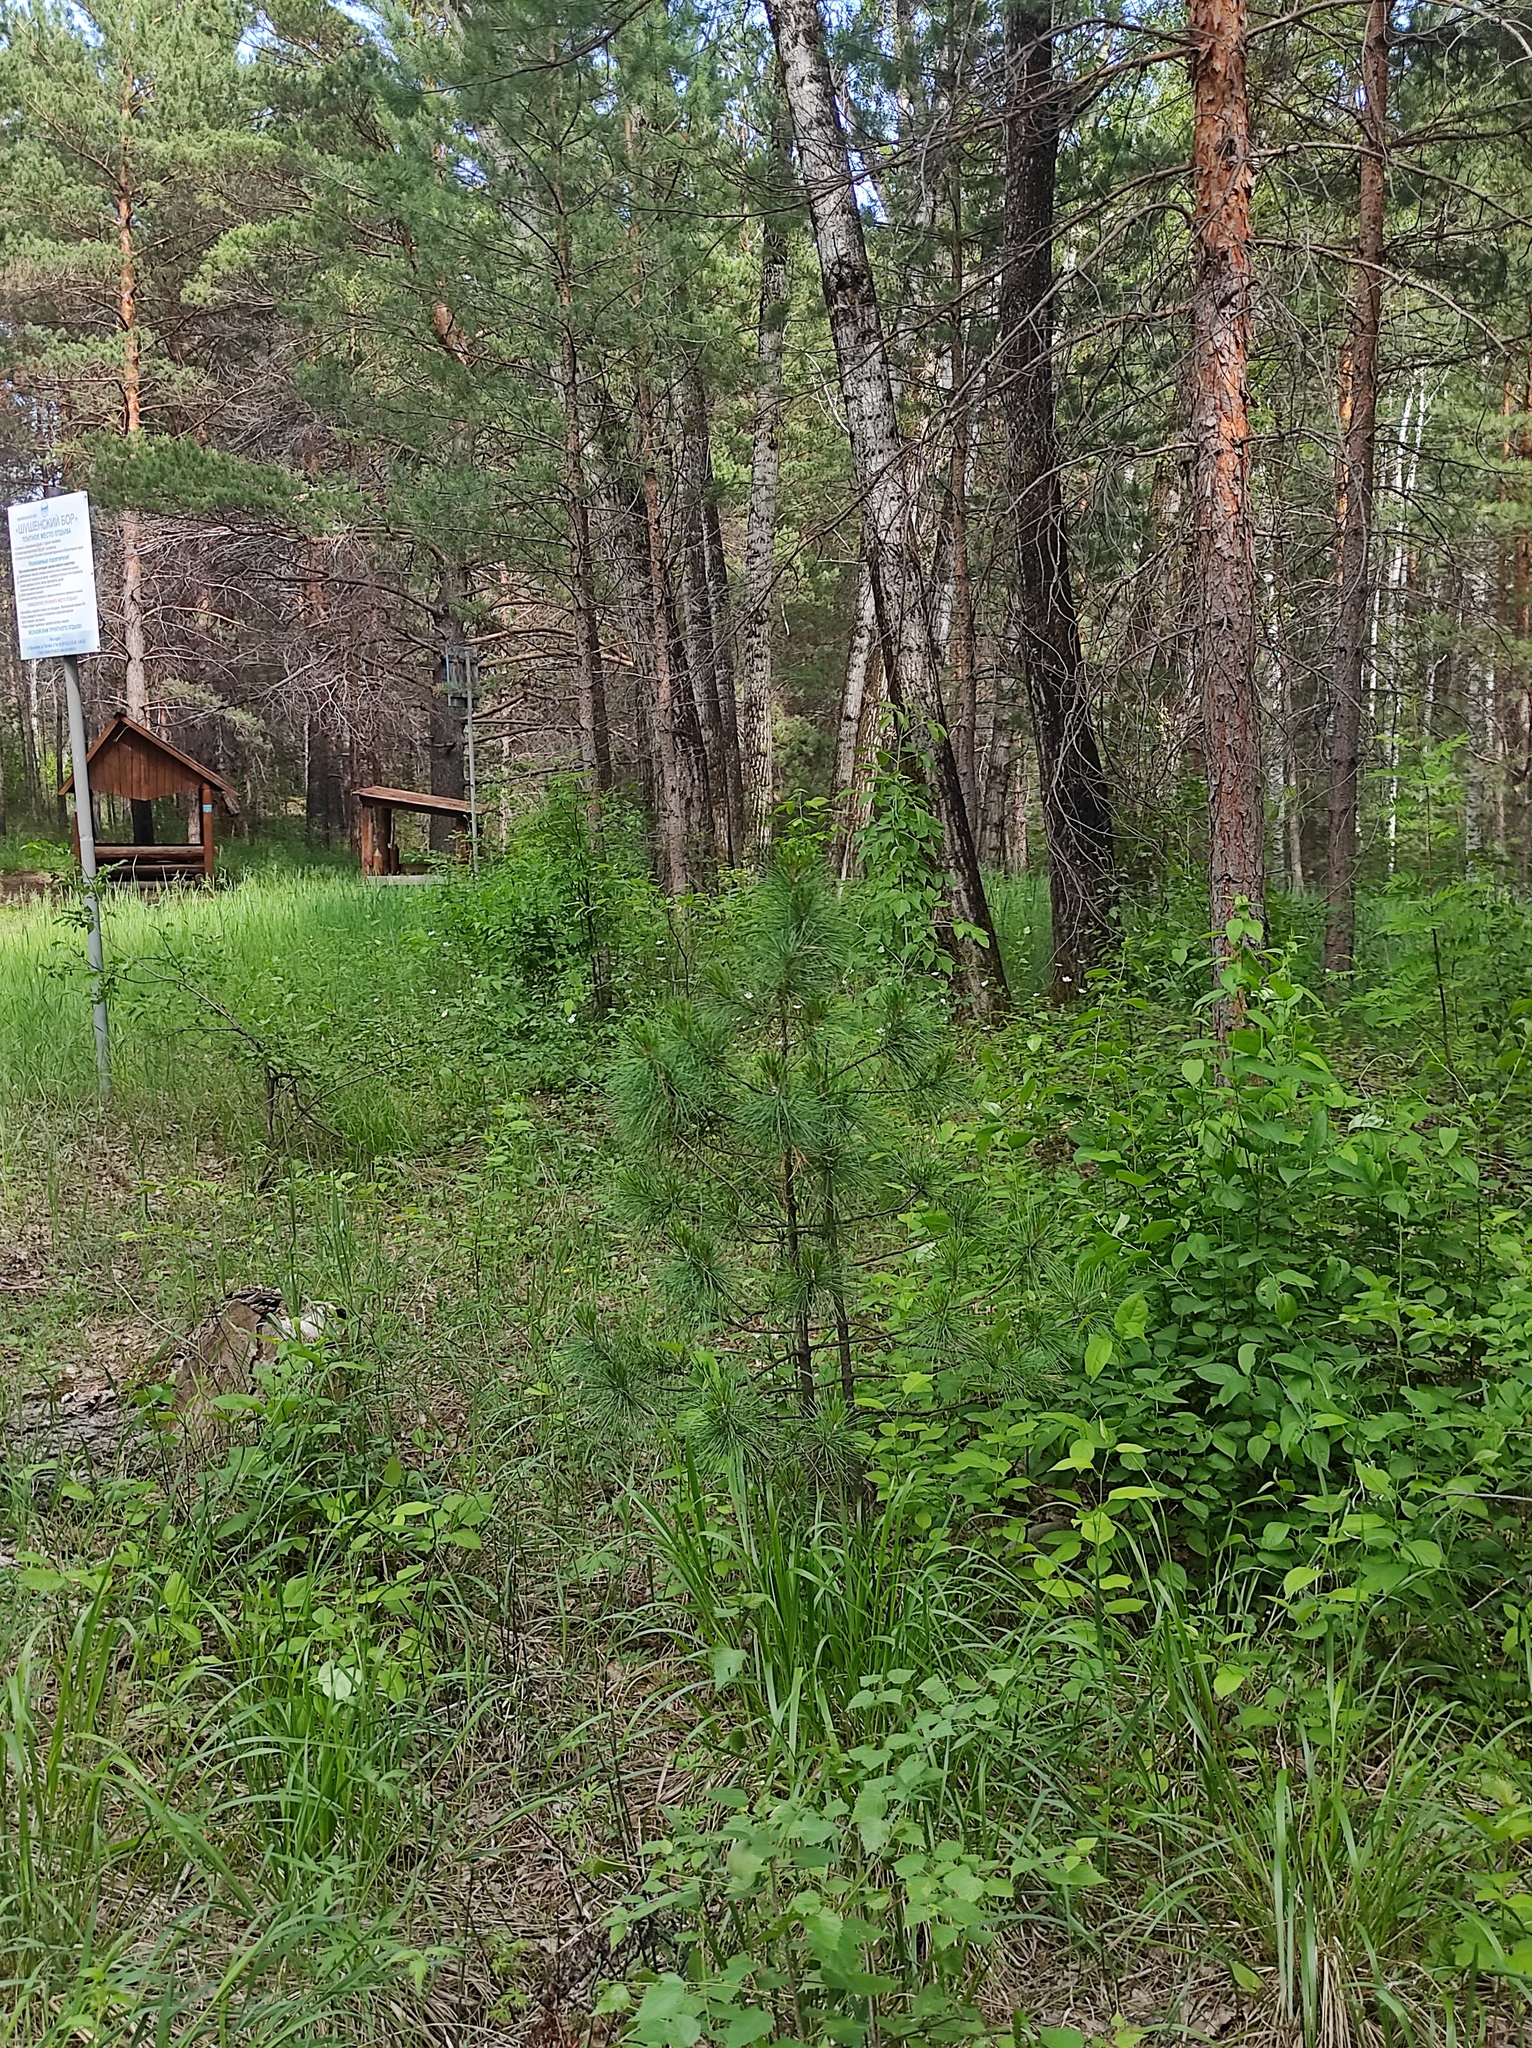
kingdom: Plantae
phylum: Tracheophyta
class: Pinopsida
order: Pinales
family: Pinaceae
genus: Pinus
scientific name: Pinus sibirica
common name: Siberian pine
